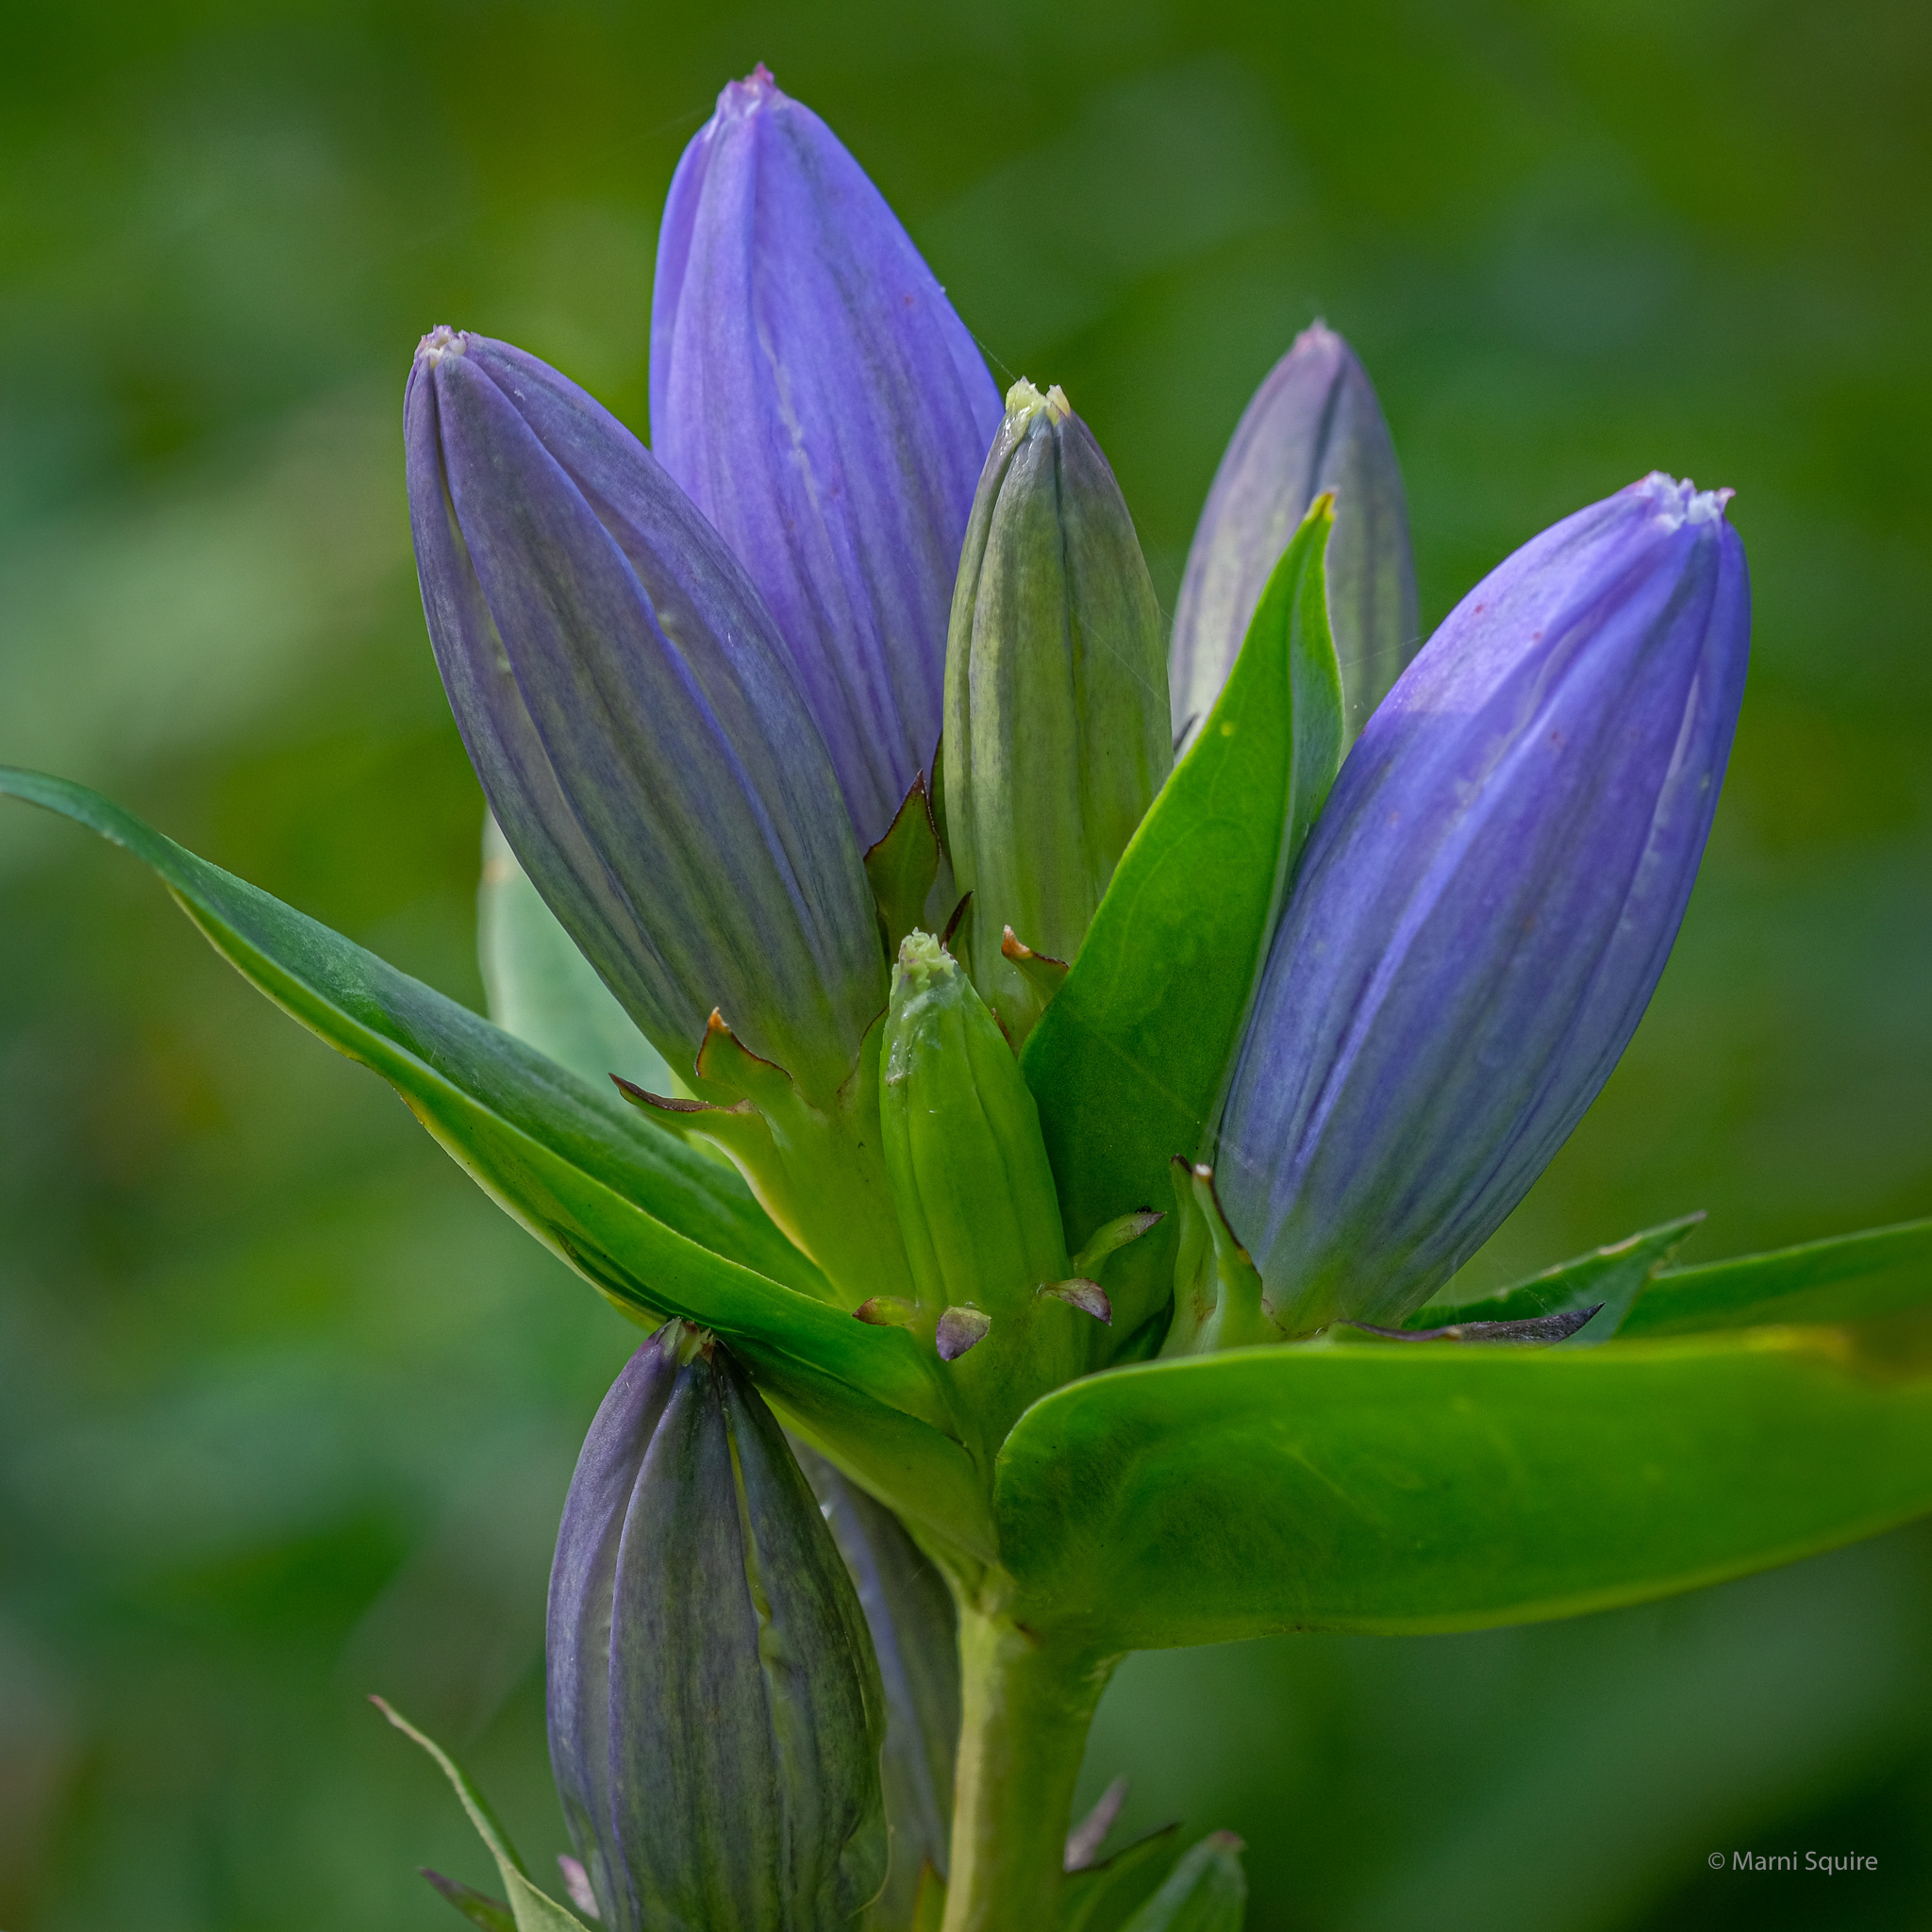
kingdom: Plantae
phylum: Tracheophyta
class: Magnoliopsida
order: Gentianales
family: Gentianaceae
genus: Gentiana
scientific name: Gentiana andrewsii
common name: Bottle gentian
